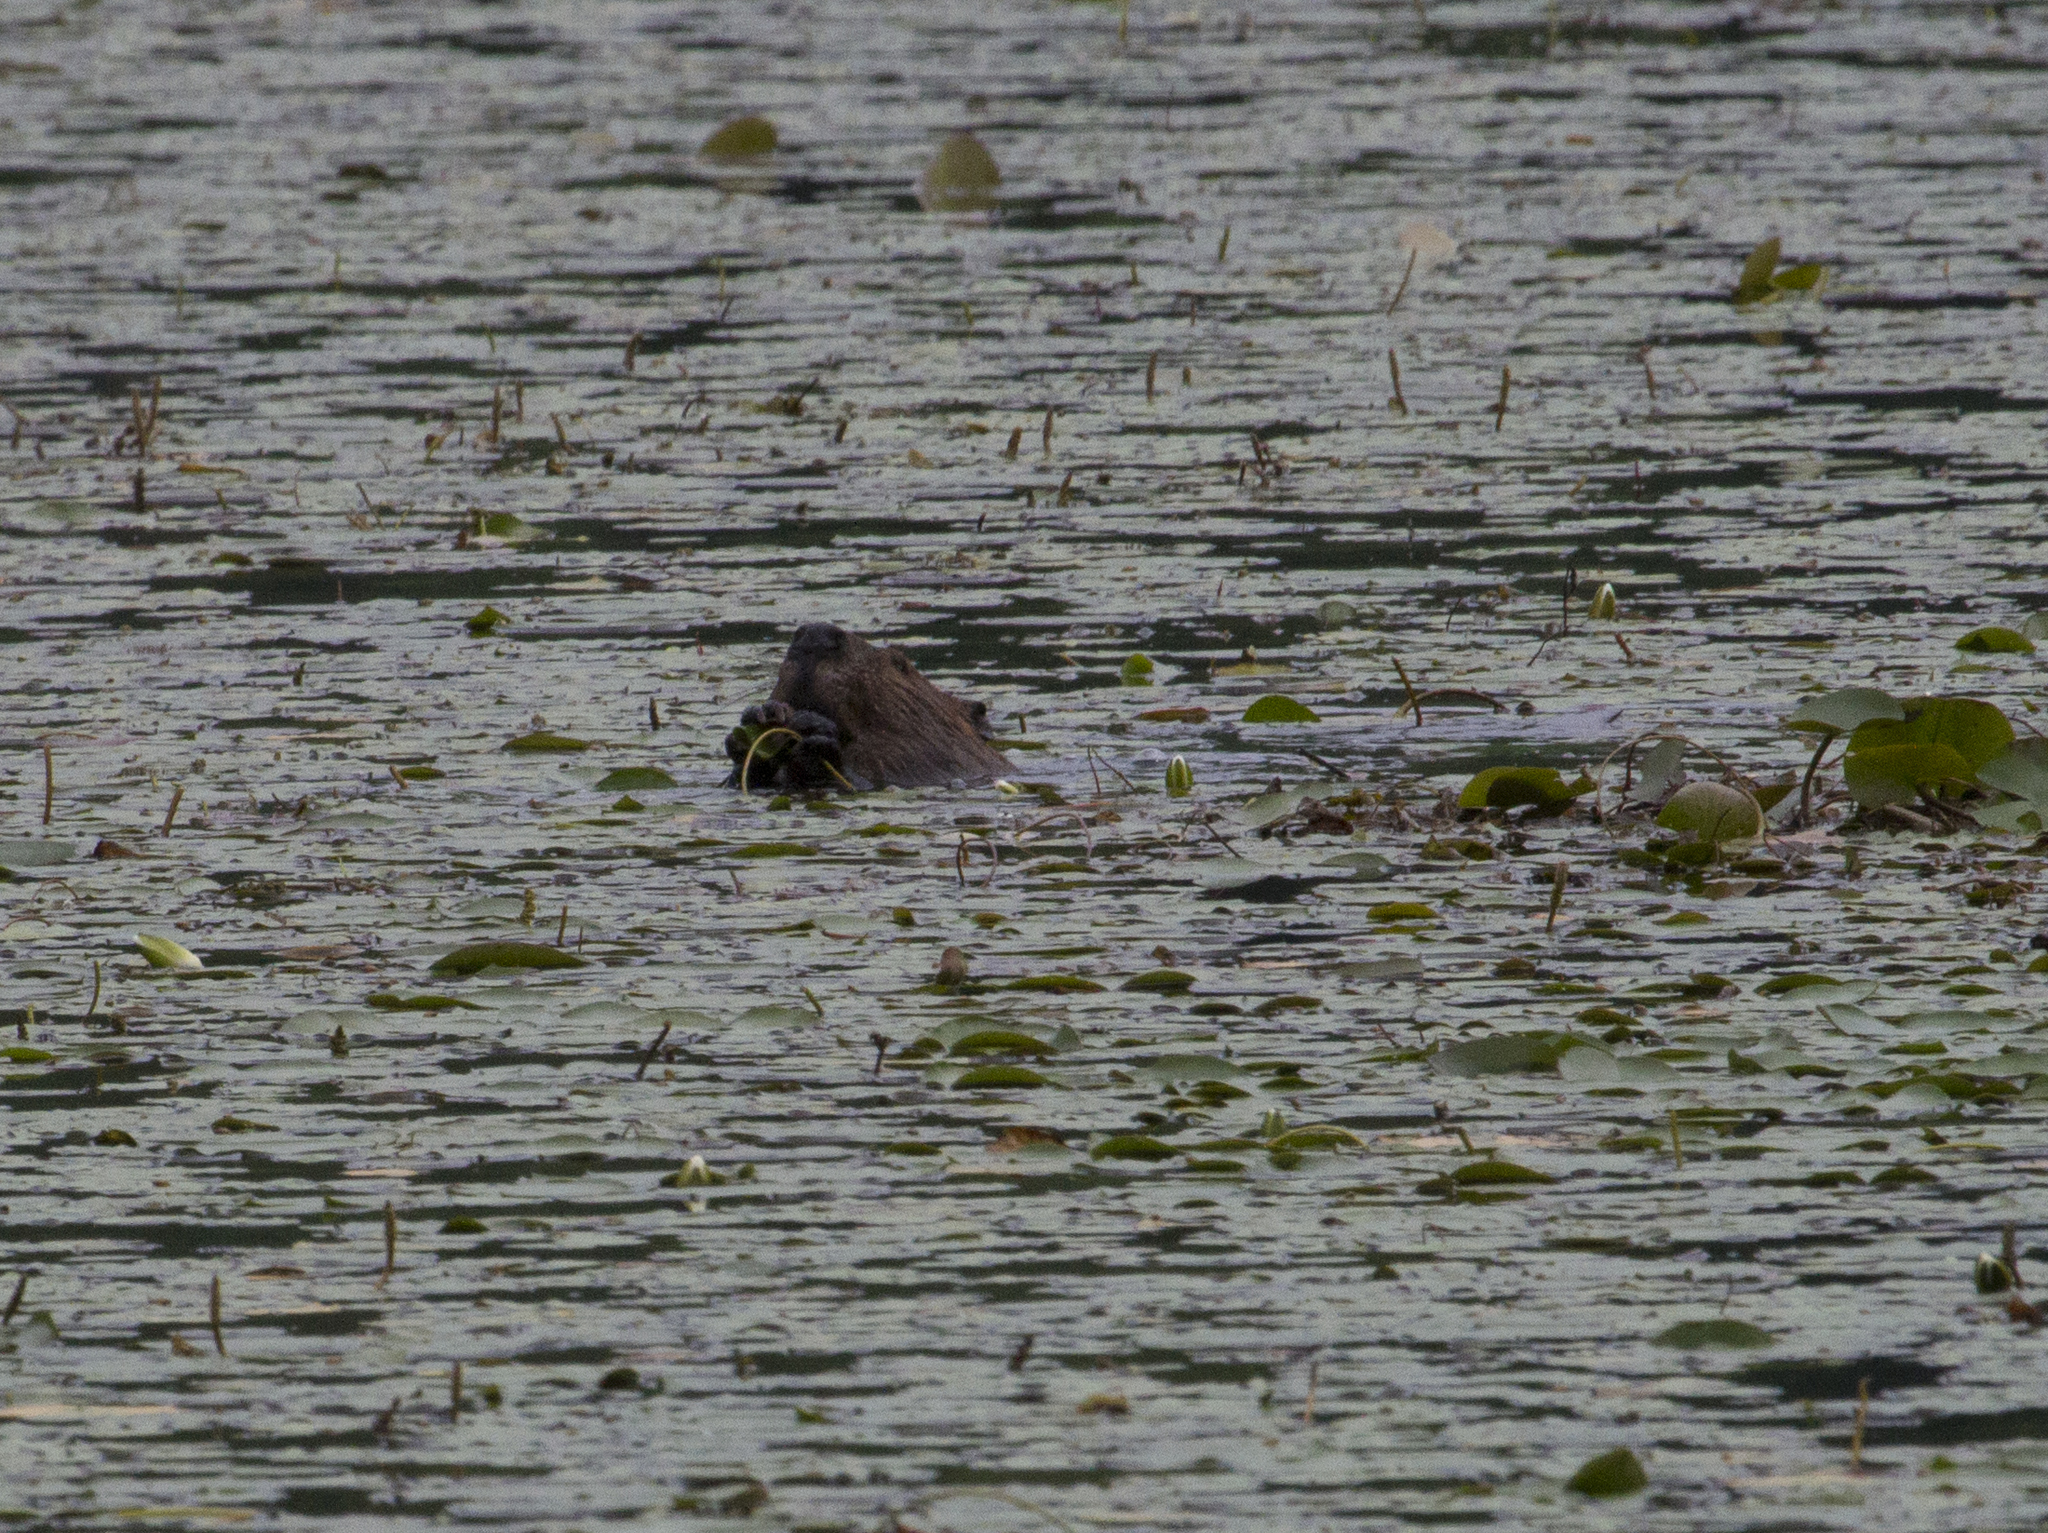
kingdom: Animalia
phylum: Chordata
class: Mammalia
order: Rodentia
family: Castoridae
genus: Castor
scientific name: Castor canadensis
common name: American beaver
